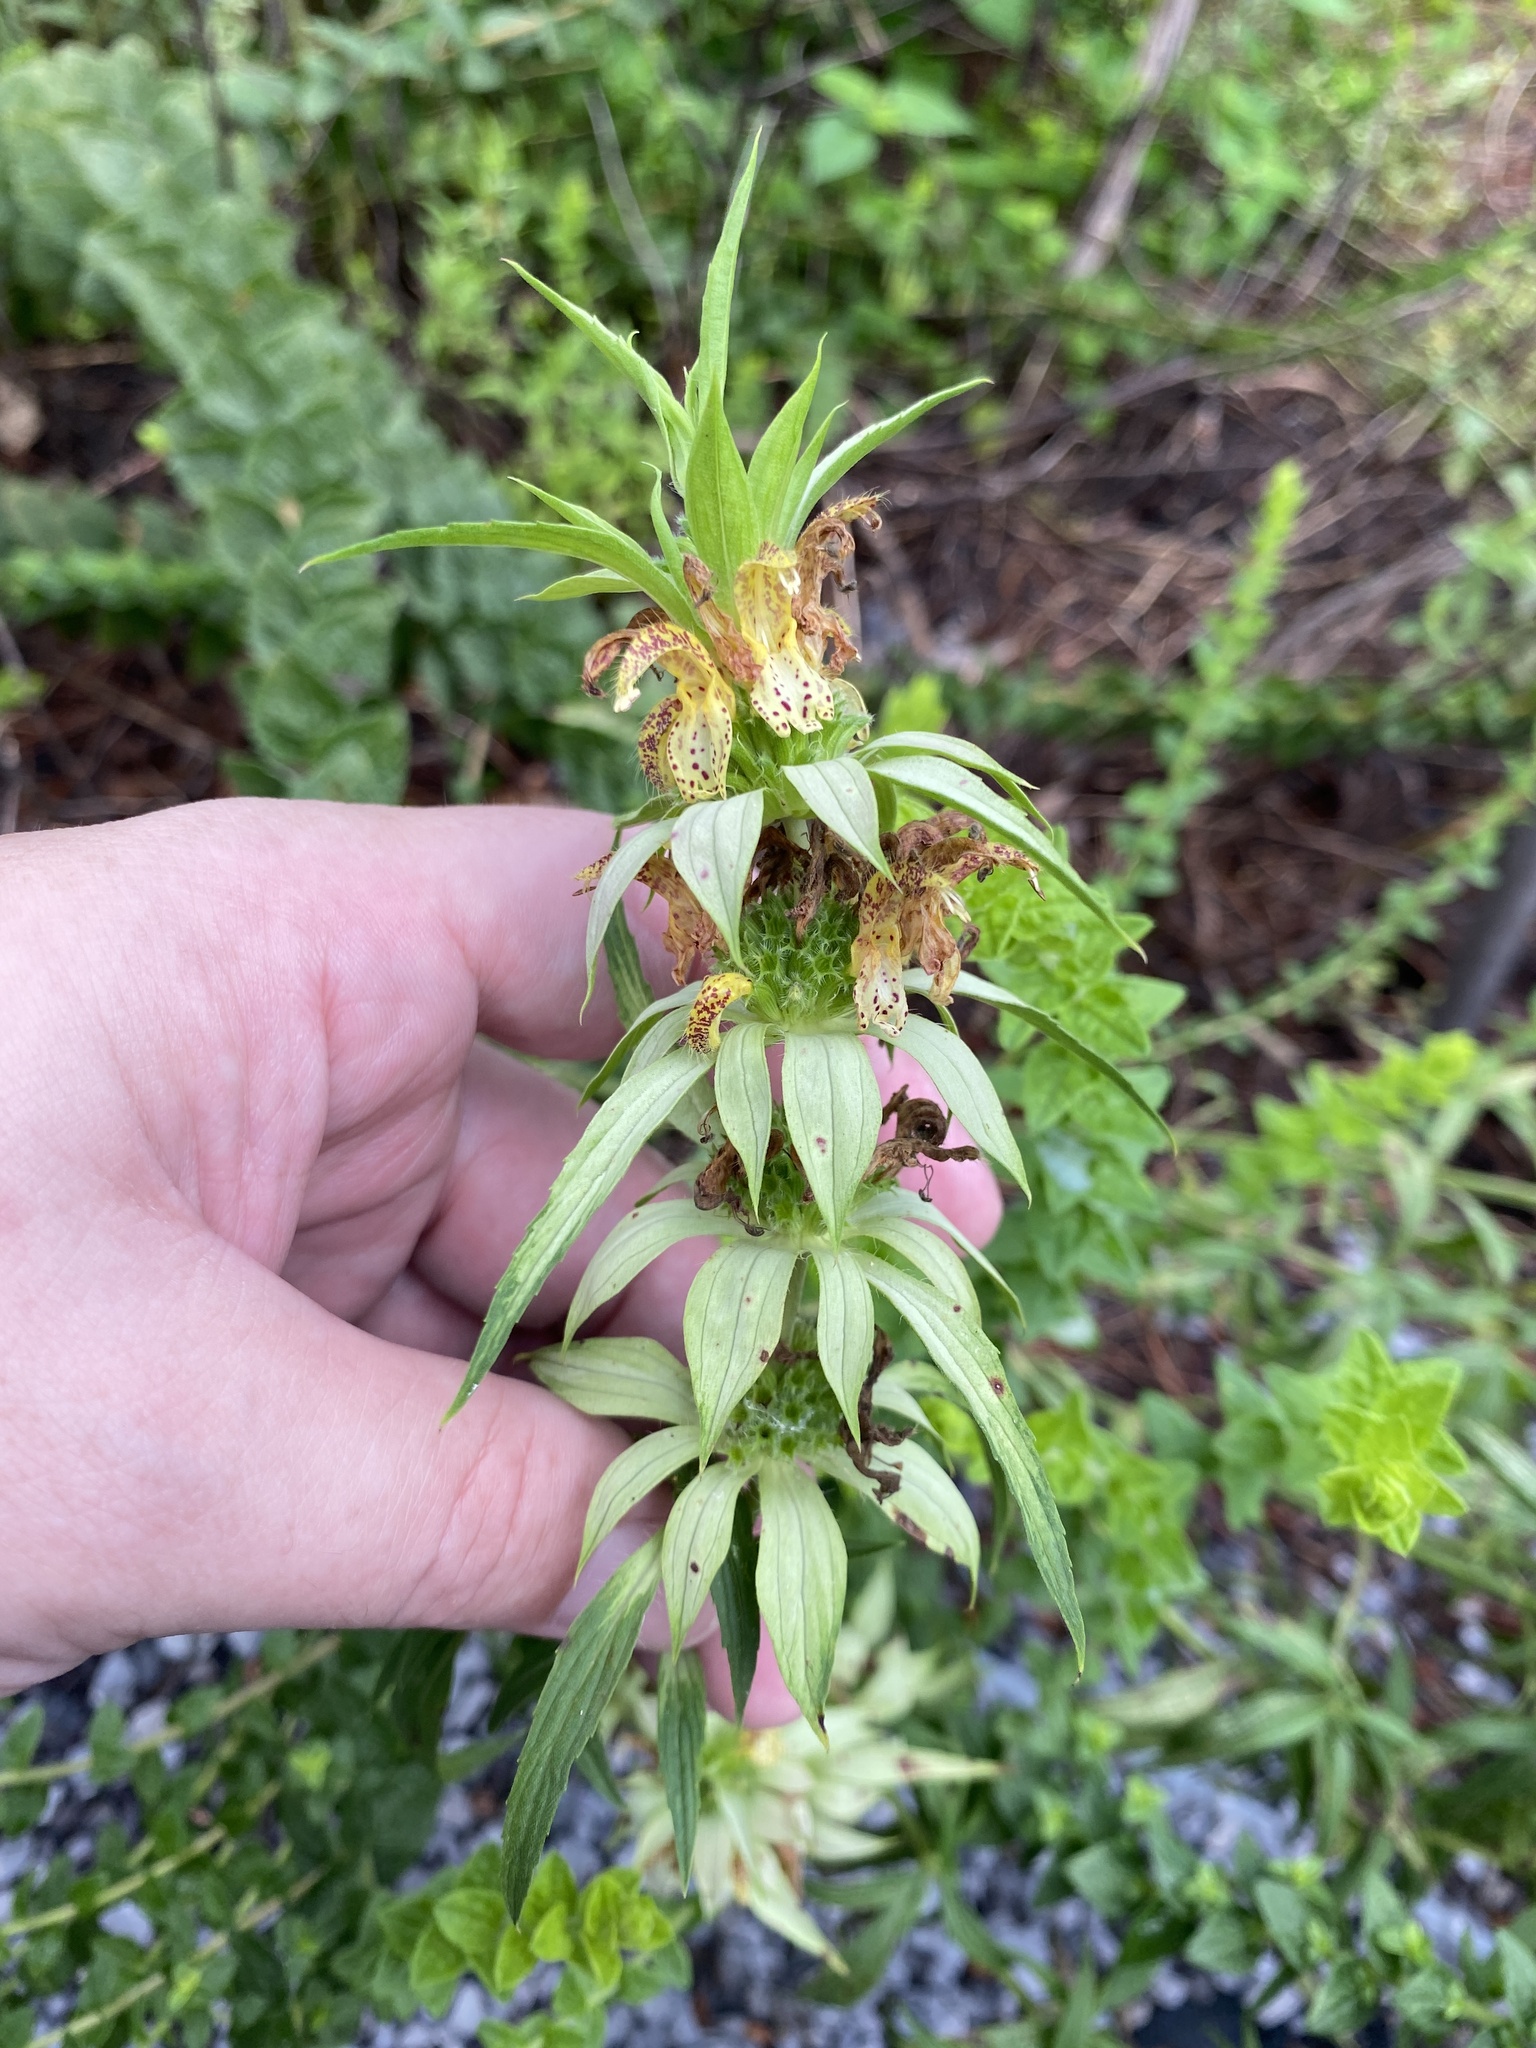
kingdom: Plantae
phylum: Tracheophyta
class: Magnoliopsida
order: Lamiales
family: Lamiaceae
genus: Monarda
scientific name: Monarda punctata
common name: Dotted monarda
